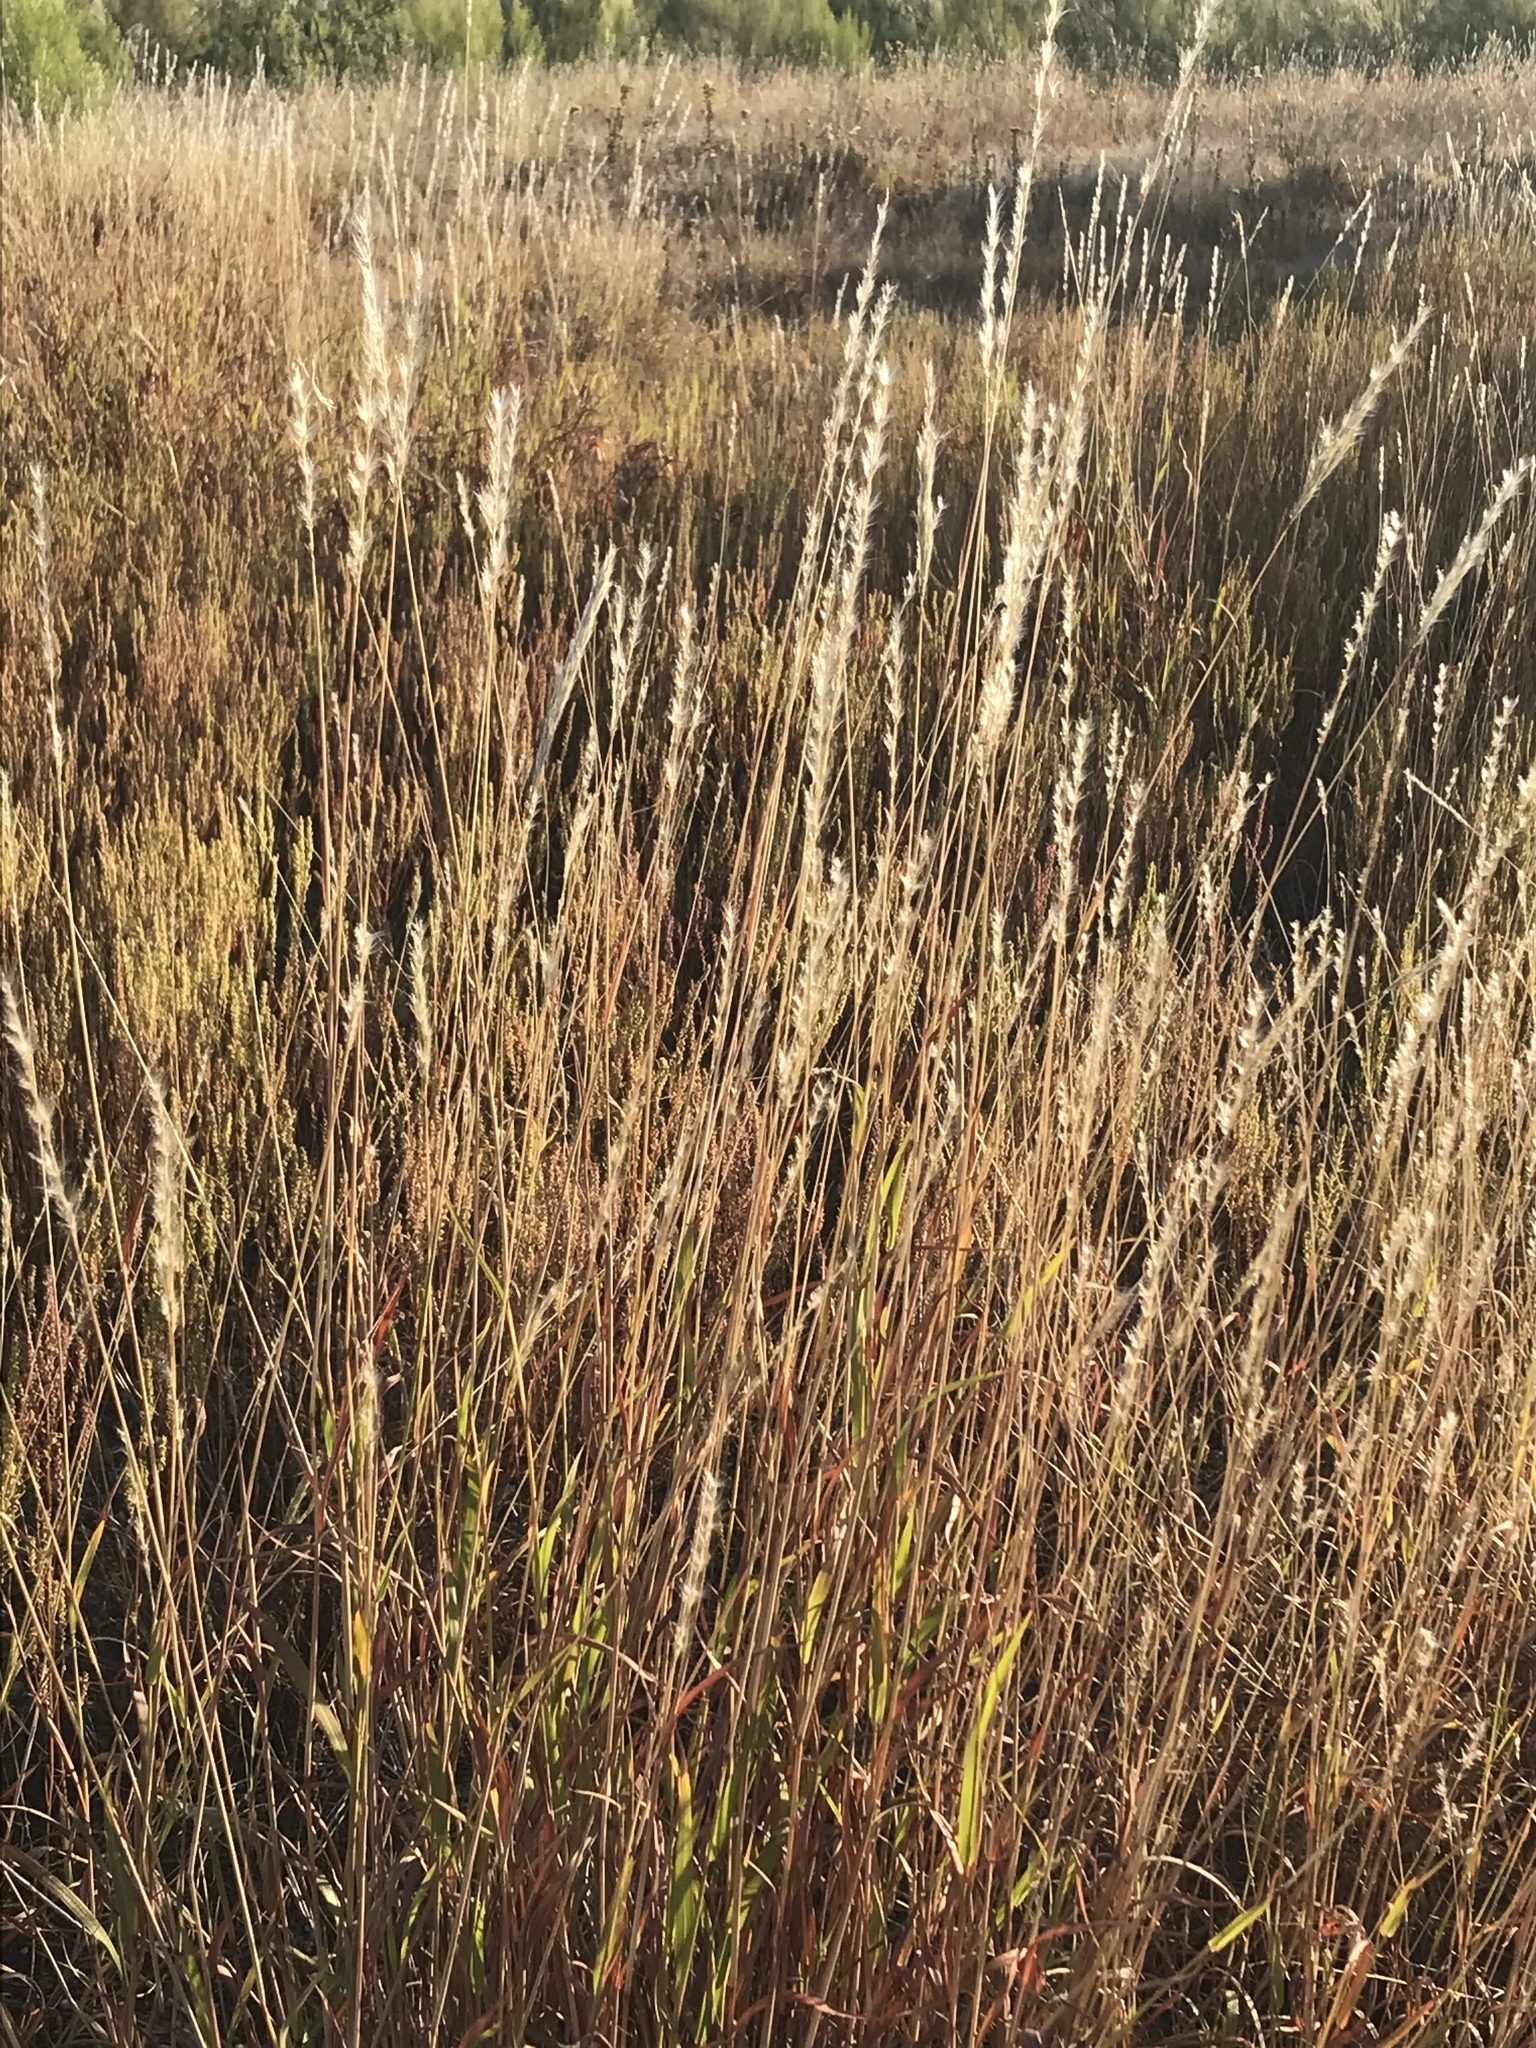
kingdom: Plantae
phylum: Tracheophyta
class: Liliopsida
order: Poales
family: Poaceae
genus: Bothriochloa
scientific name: Bothriochloa torreyana
